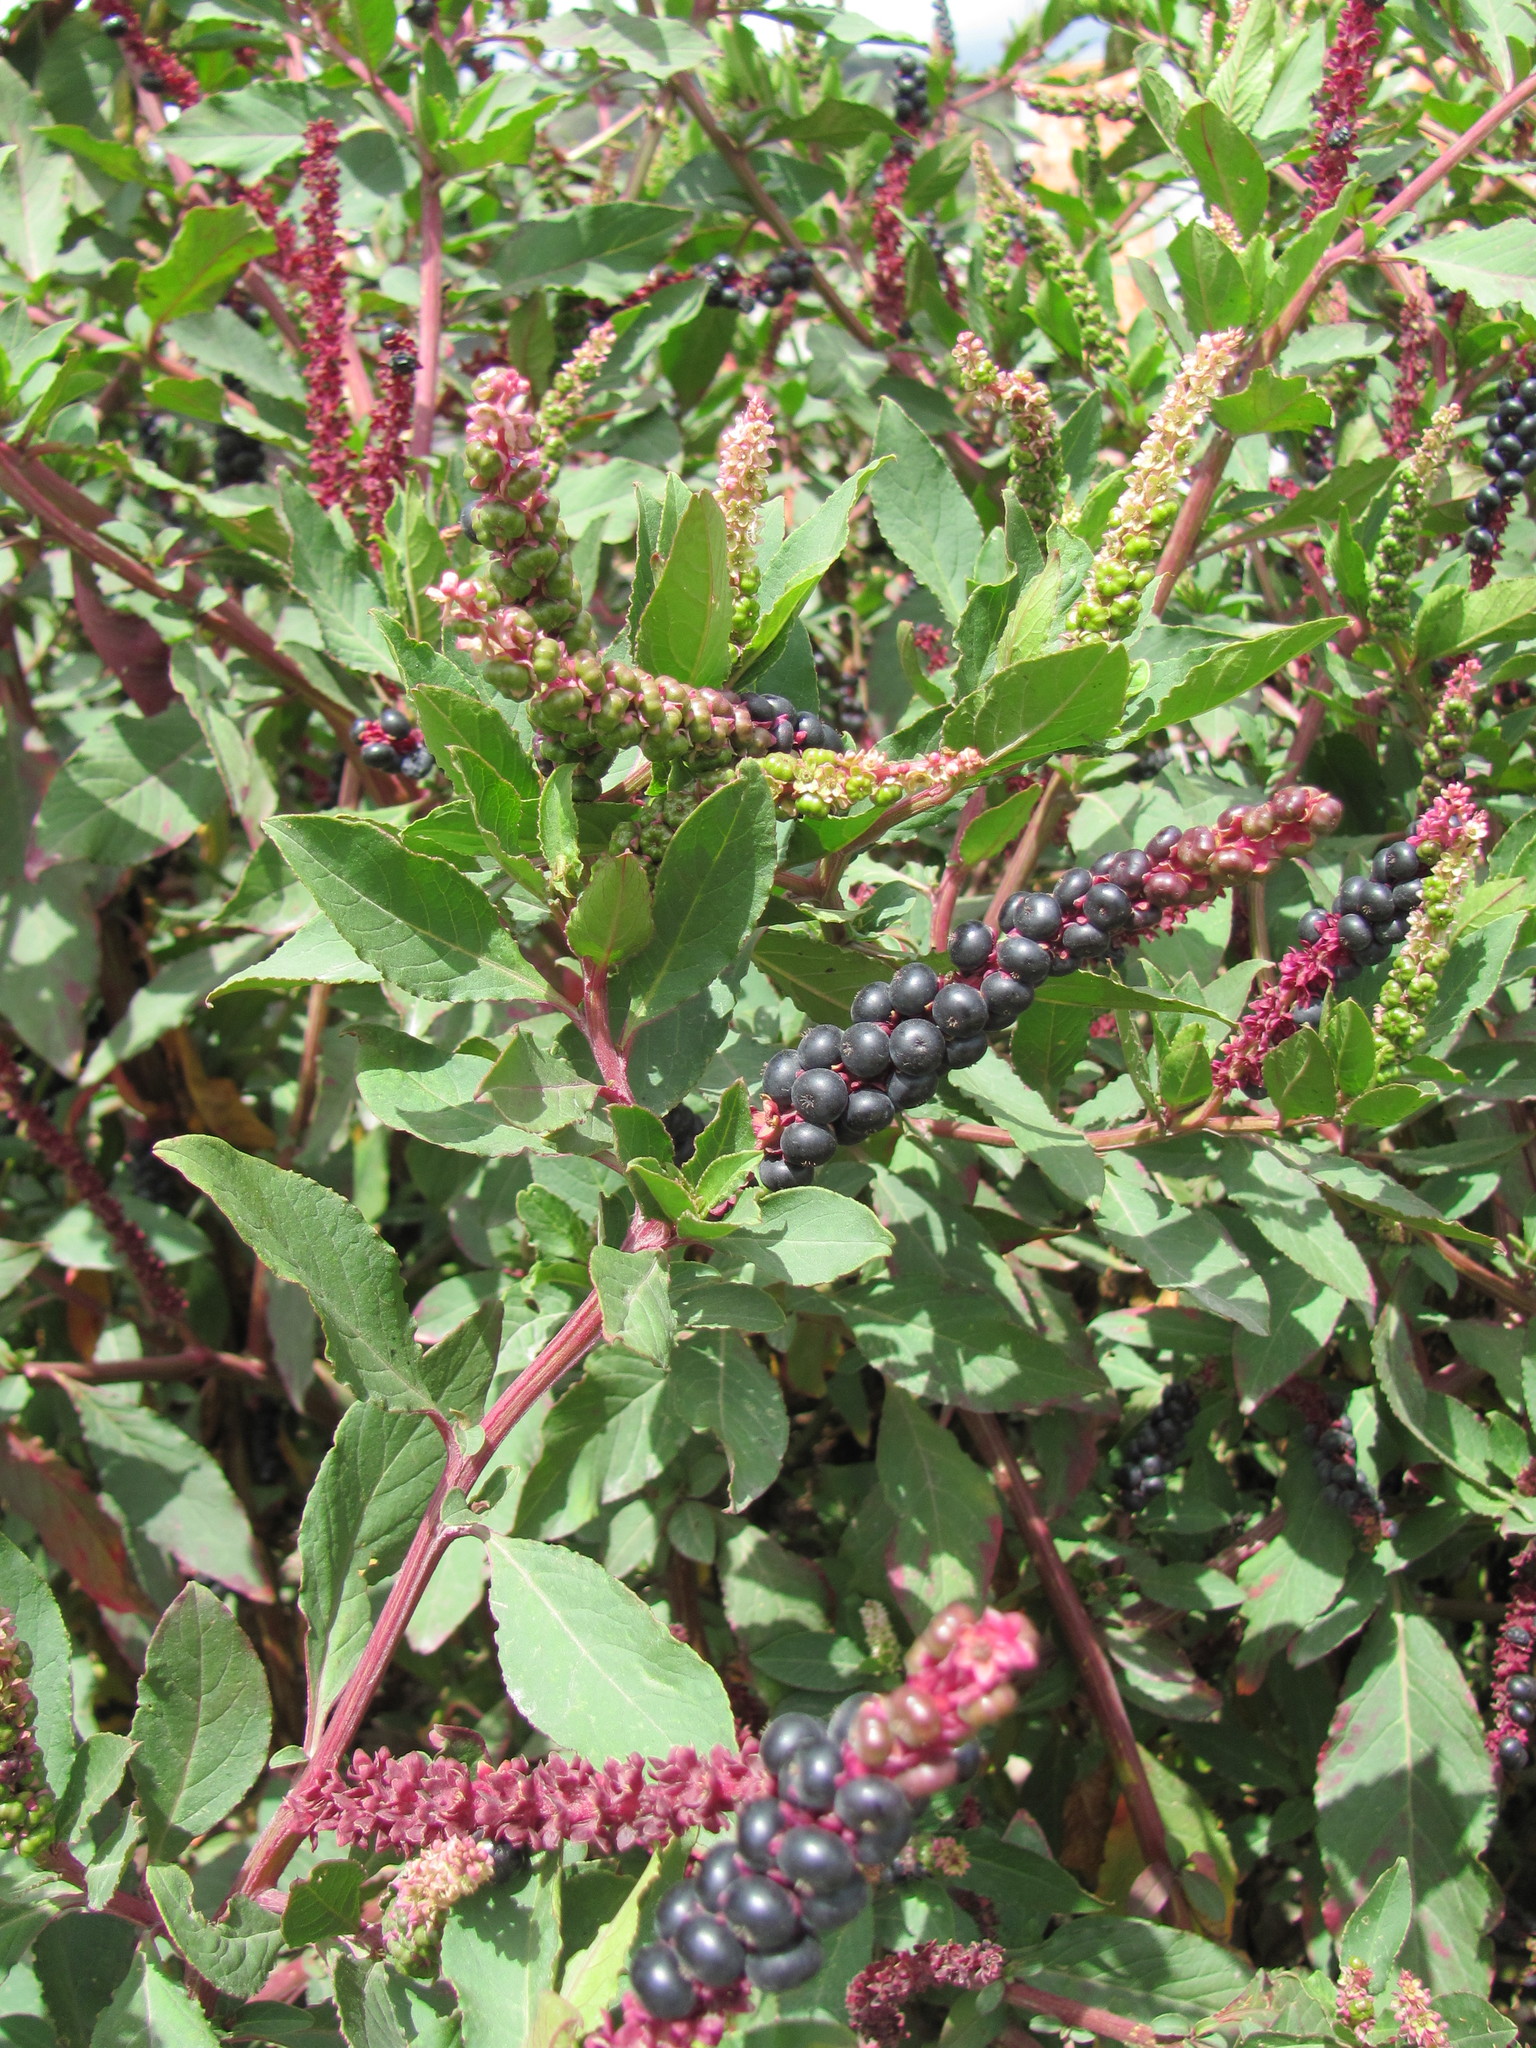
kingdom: Plantae
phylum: Tracheophyta
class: Magnoliopsida
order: Caryophyllales
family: Phytolaccaceae
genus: Phytolacca
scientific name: Phytolacca icosandra
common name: Button pokeweed
